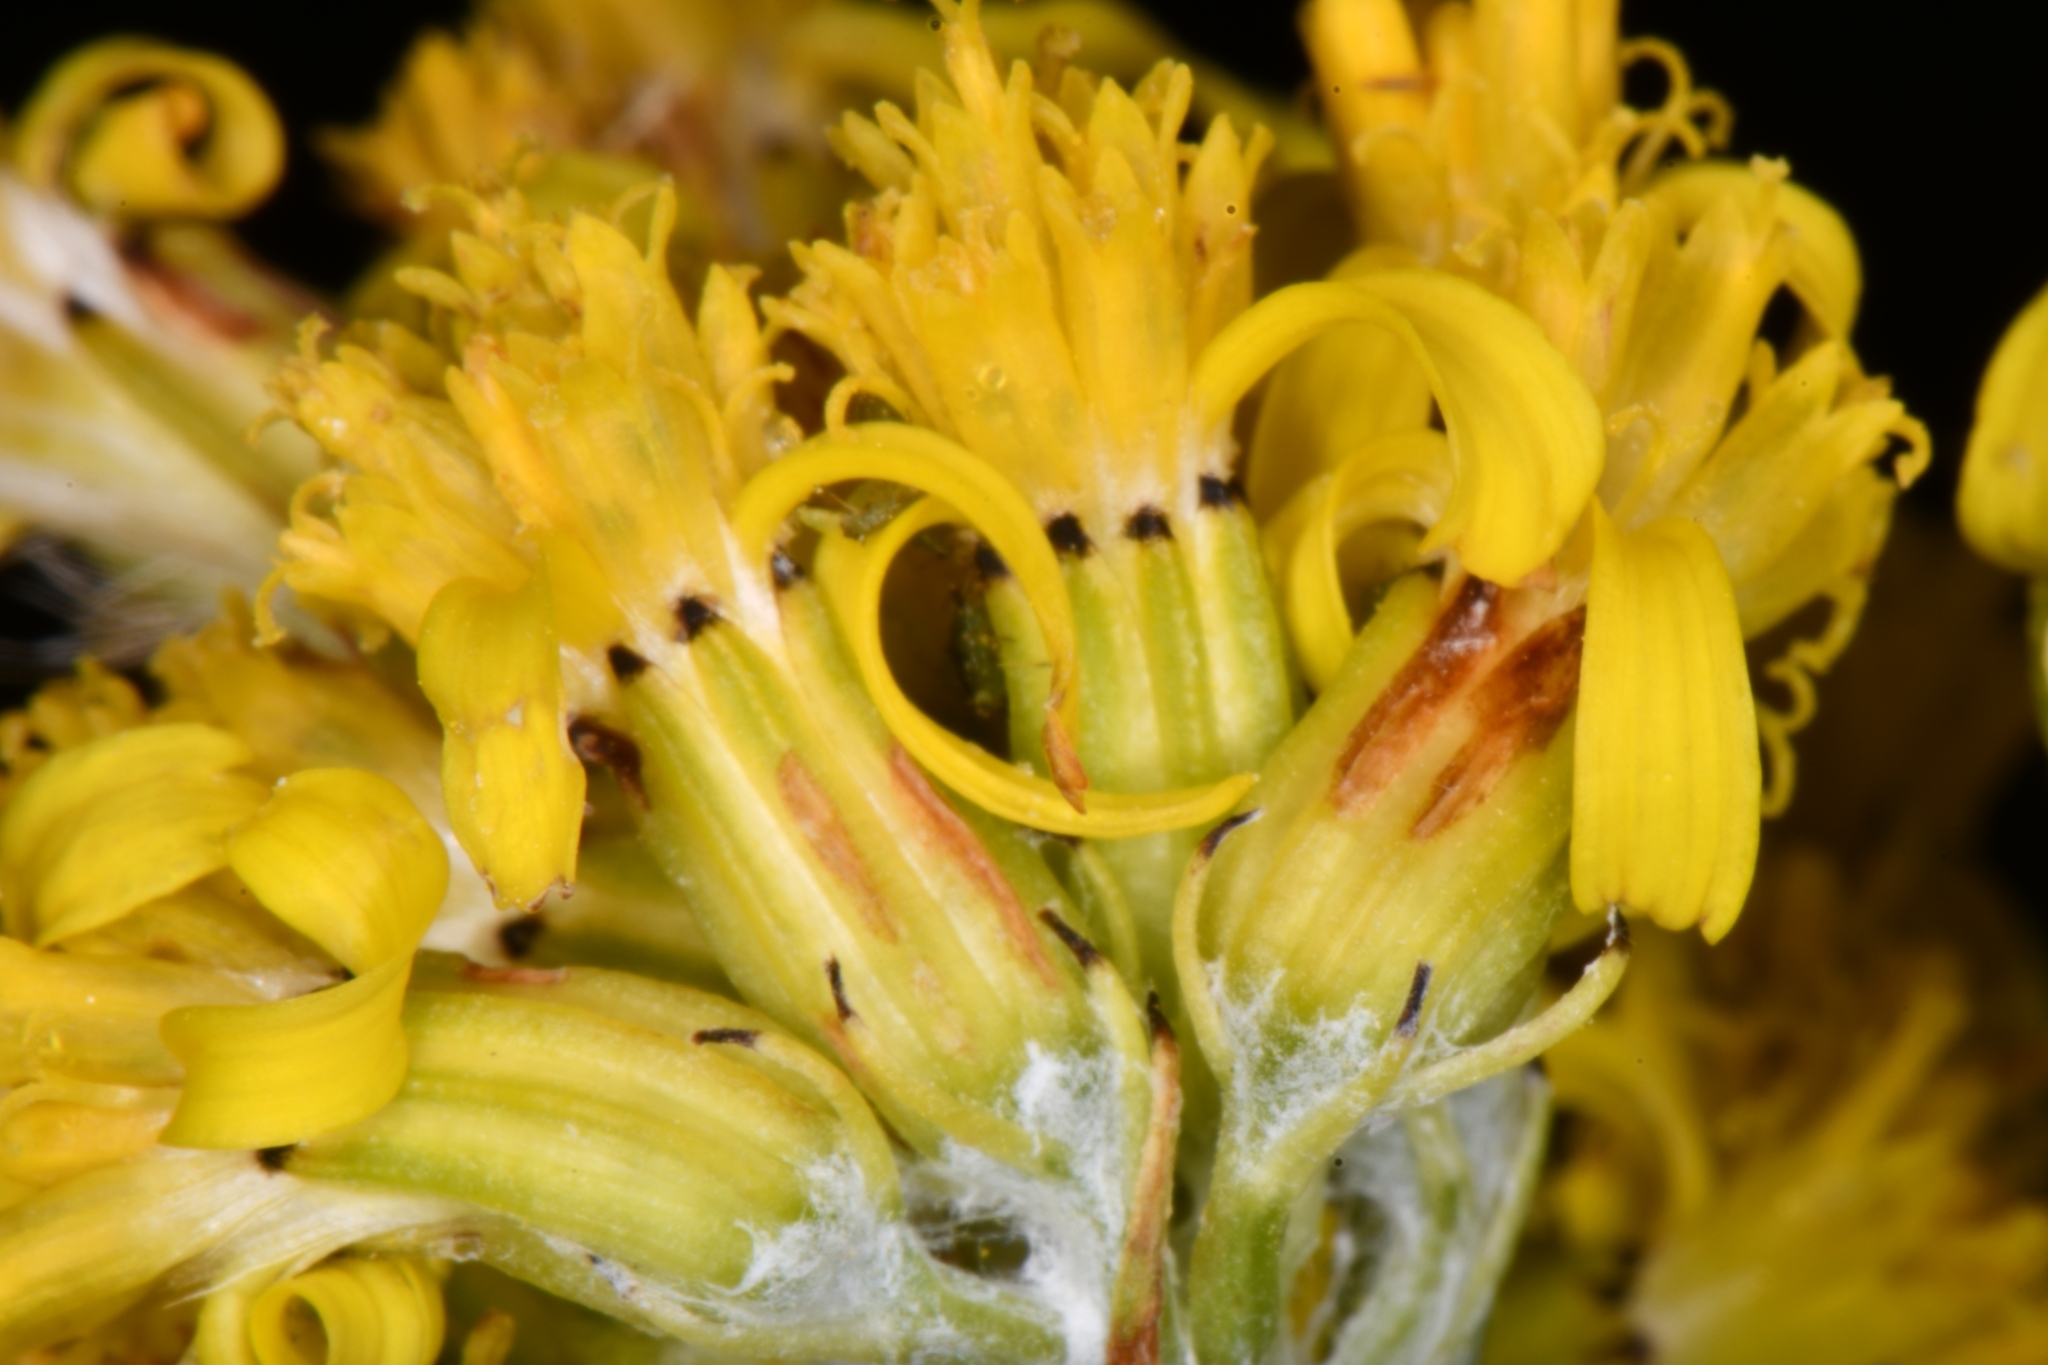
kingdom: Plantae
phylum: Tracheophyta
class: Magnoliopsida
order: Asterales
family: Asteraceae
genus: Senecio
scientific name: Senecio atratus
